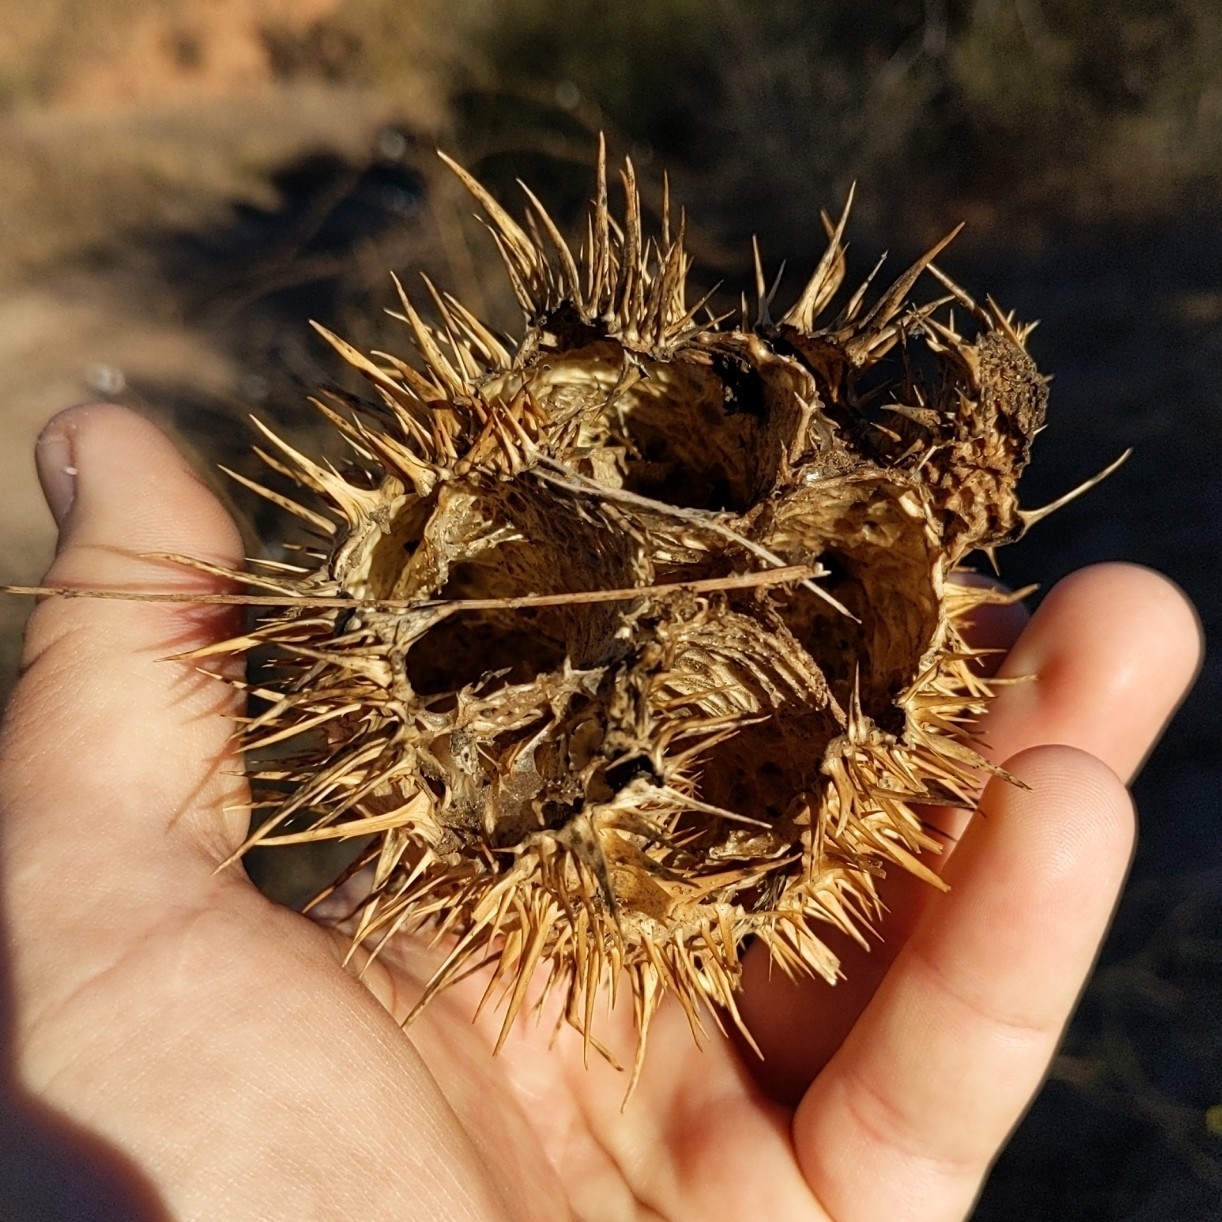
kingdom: Plantae
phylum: Tracheophyta
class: Magnoliopsida
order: Cucurbitales
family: Cucurbitaceae
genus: Marah
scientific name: Marah macrocarpa
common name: Cucamonga manroot
